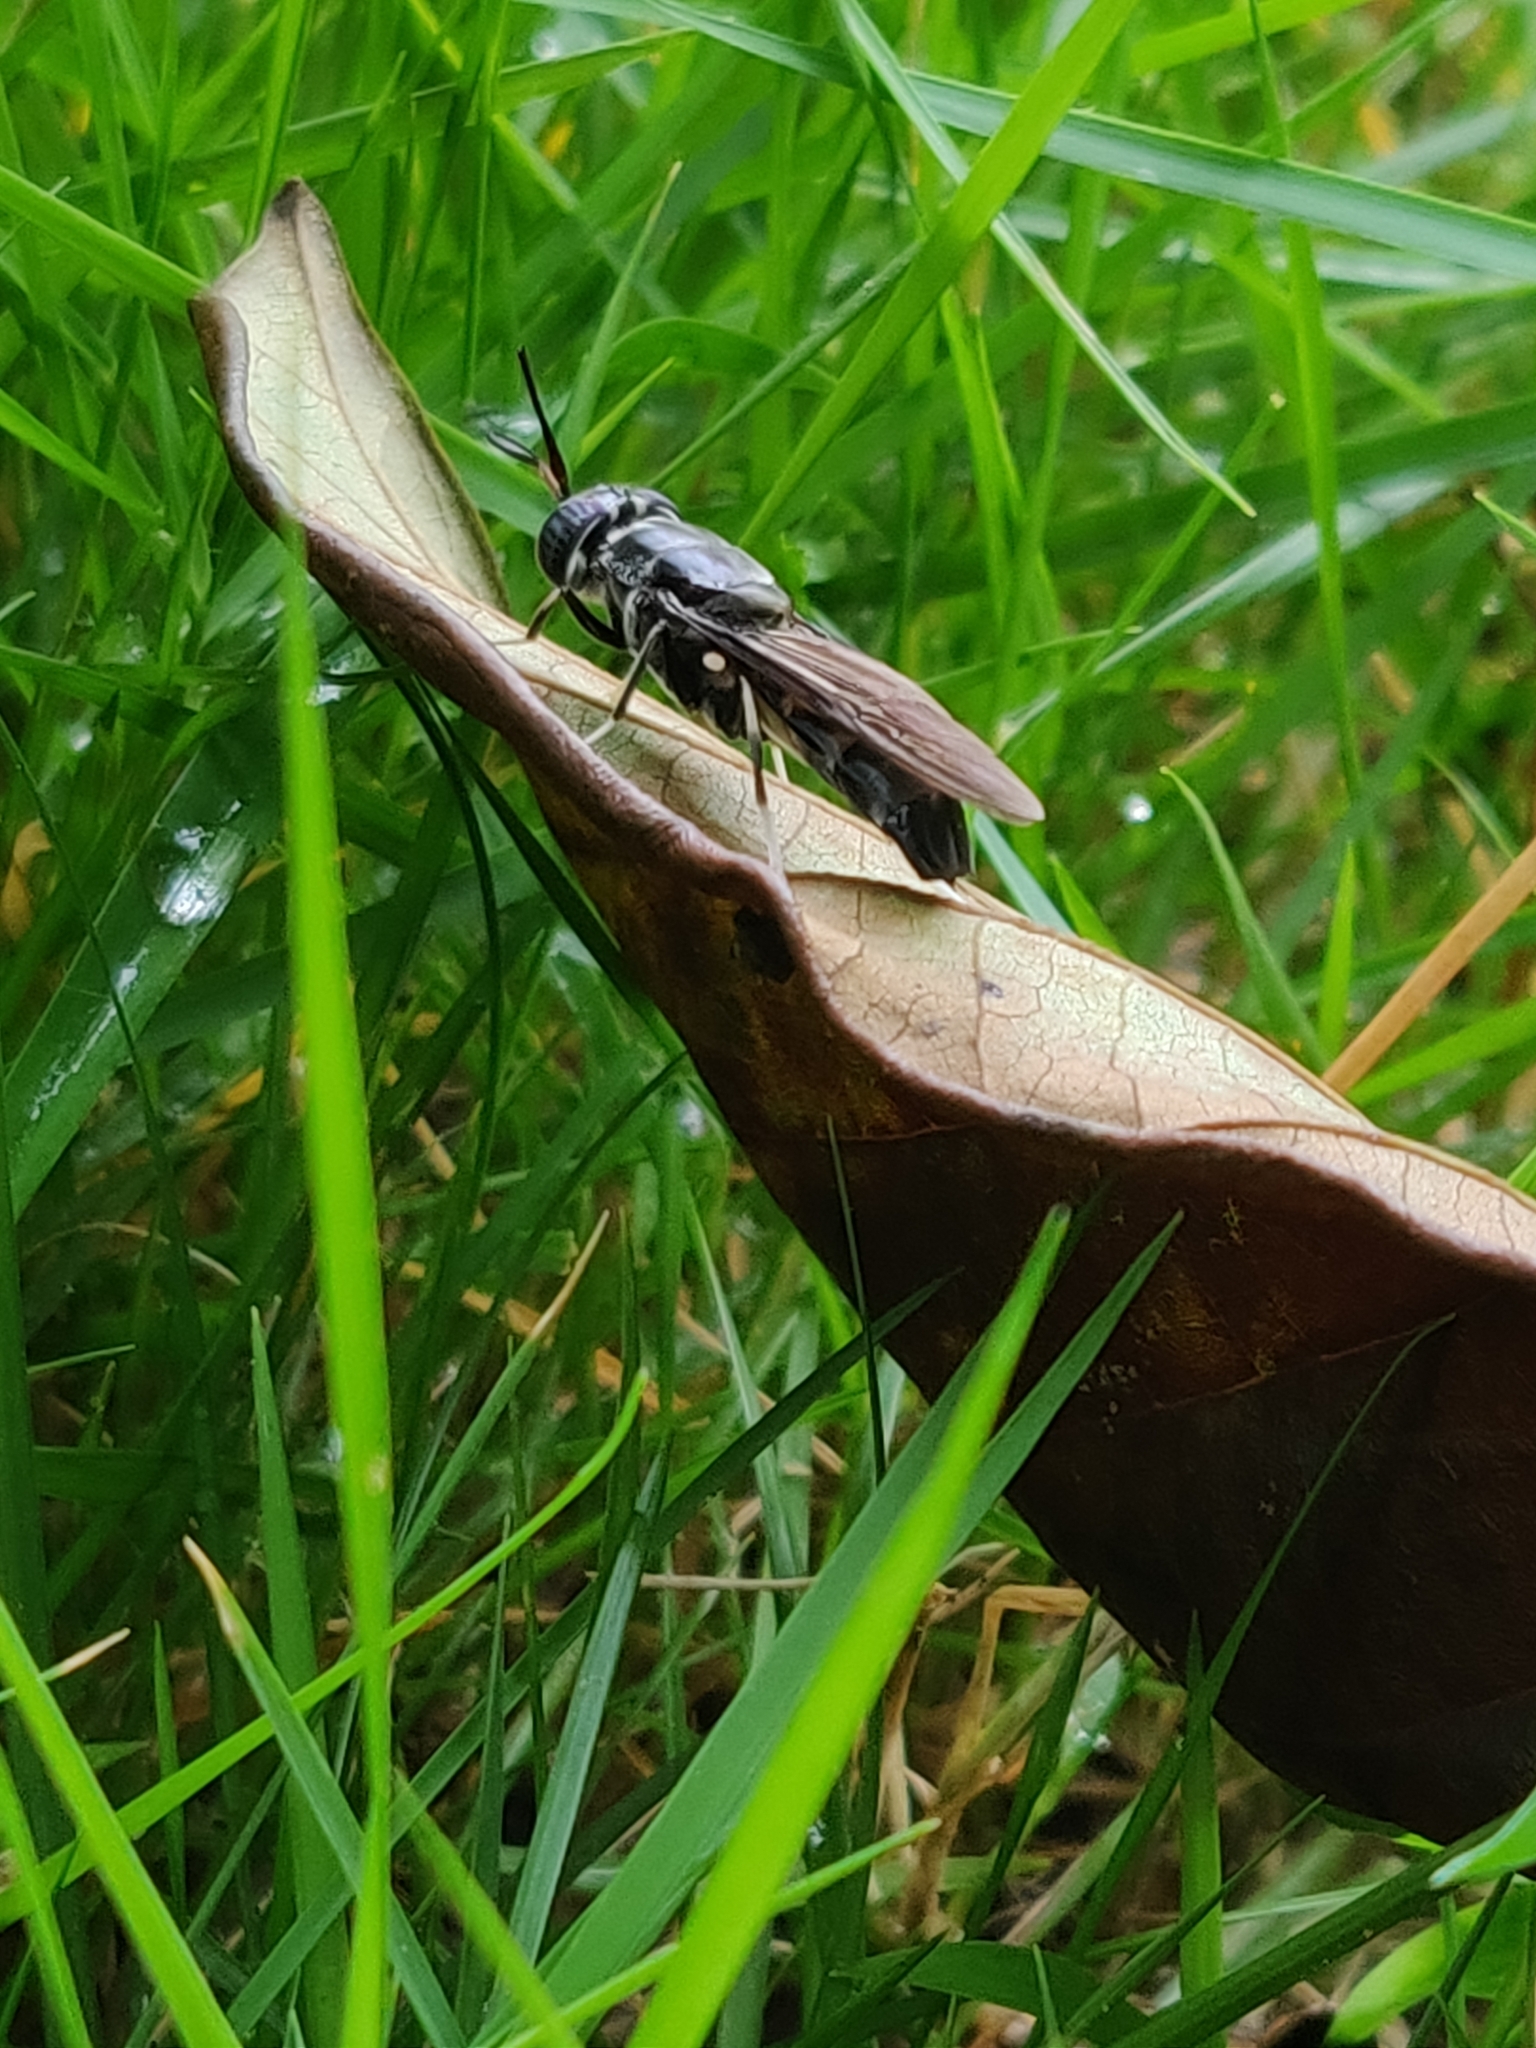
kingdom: Animalia
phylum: Arthropoda
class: Insecta
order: Diptera
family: Stratiomyidae
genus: Hermetia
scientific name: Hermetia illucens
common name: Black soldier fly
